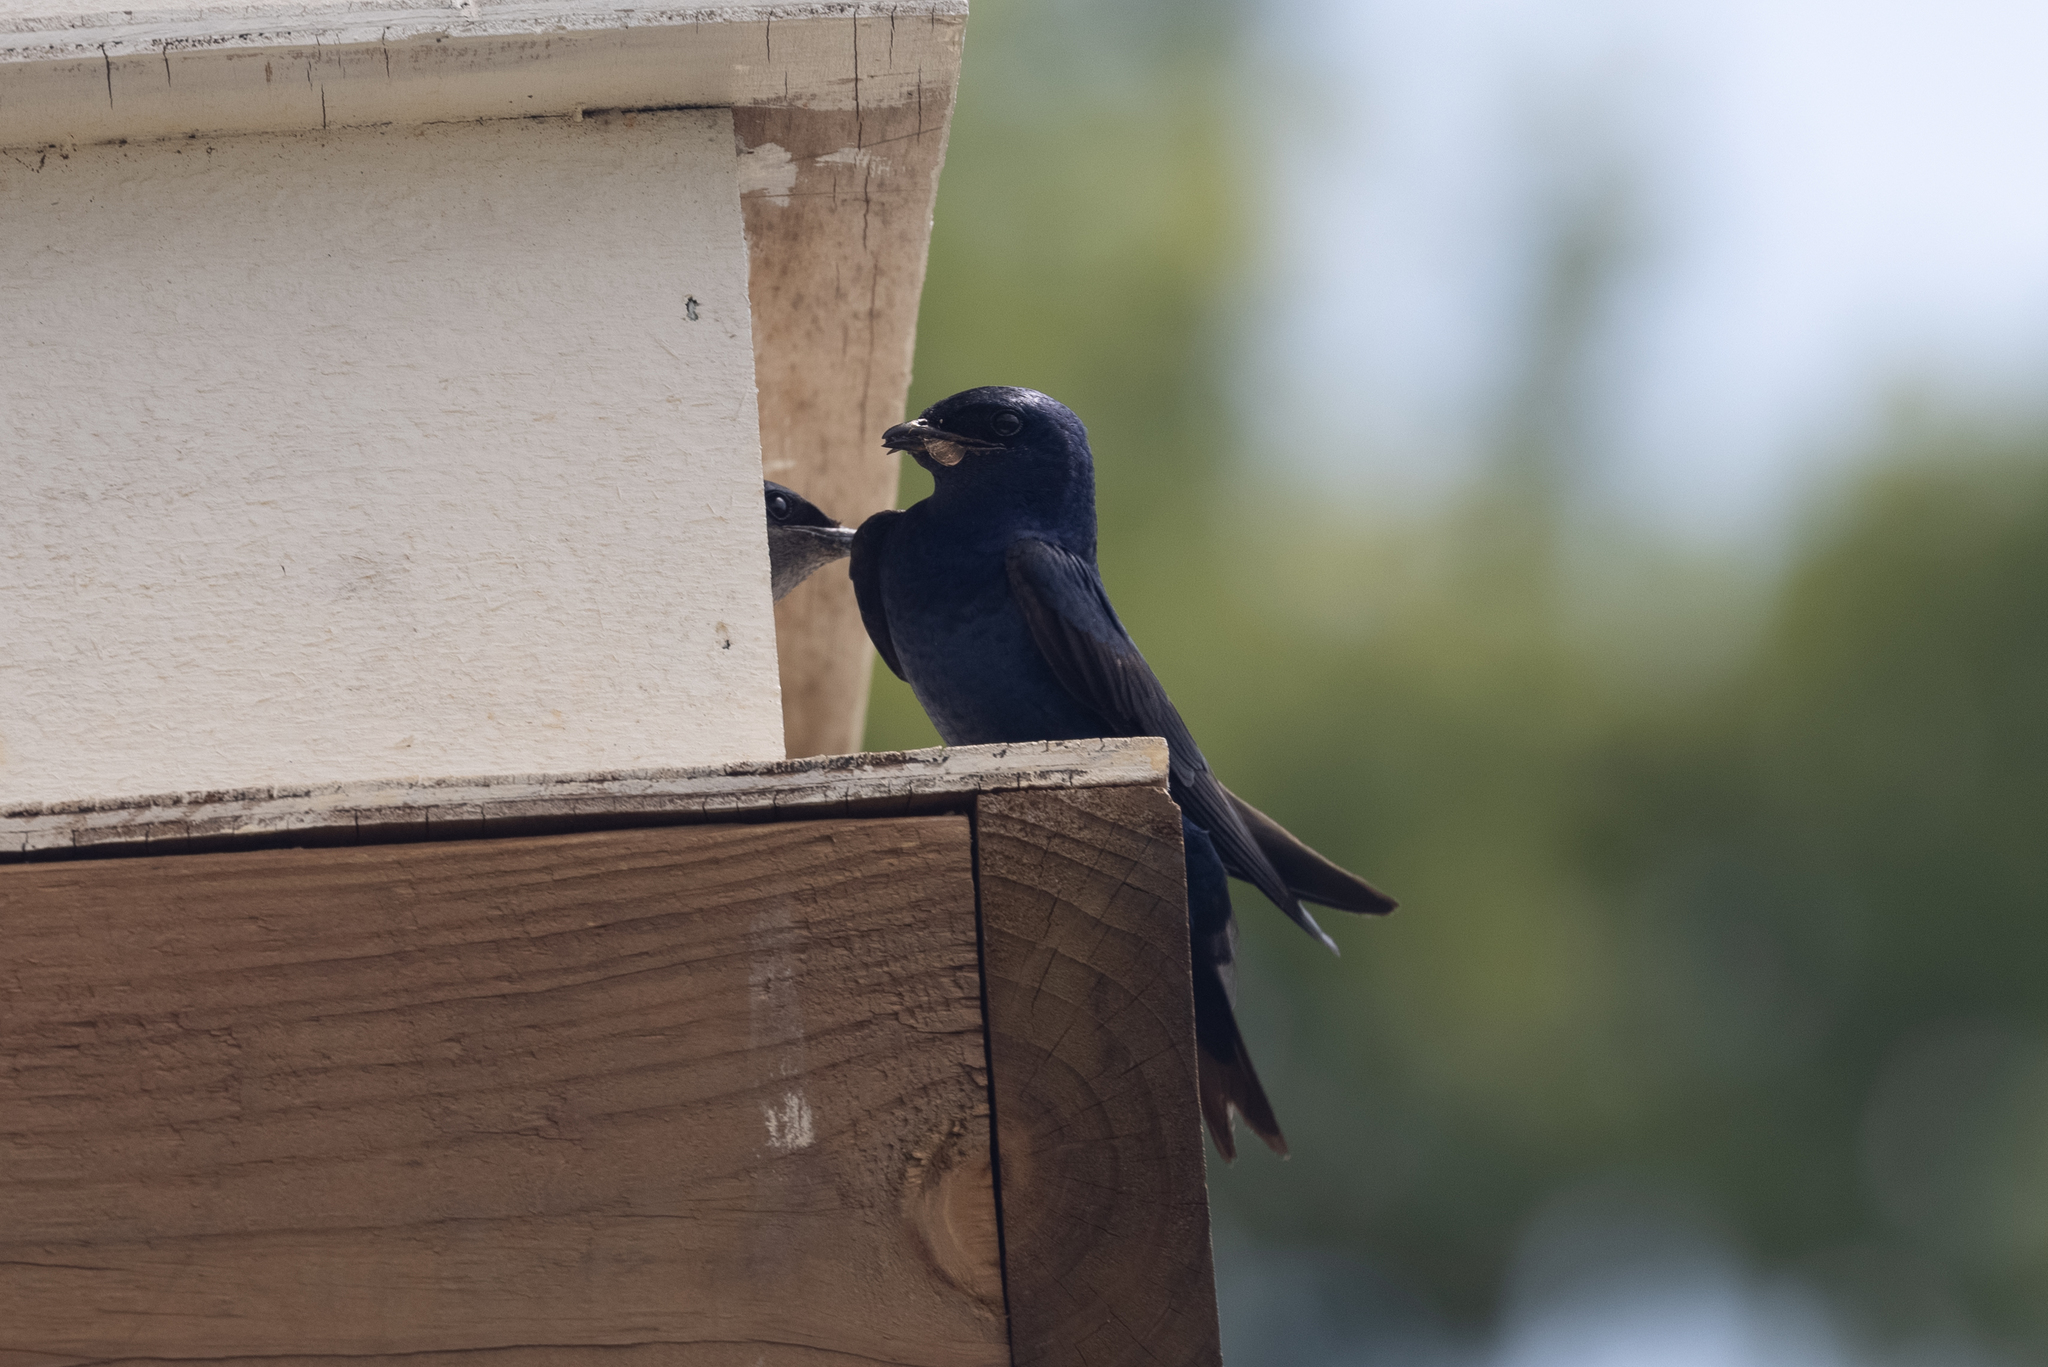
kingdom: Animalia
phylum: Chordata
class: Aves
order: Passeriformes
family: Hirundinidae
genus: Progne
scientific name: Progne subis
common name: Purple martin
